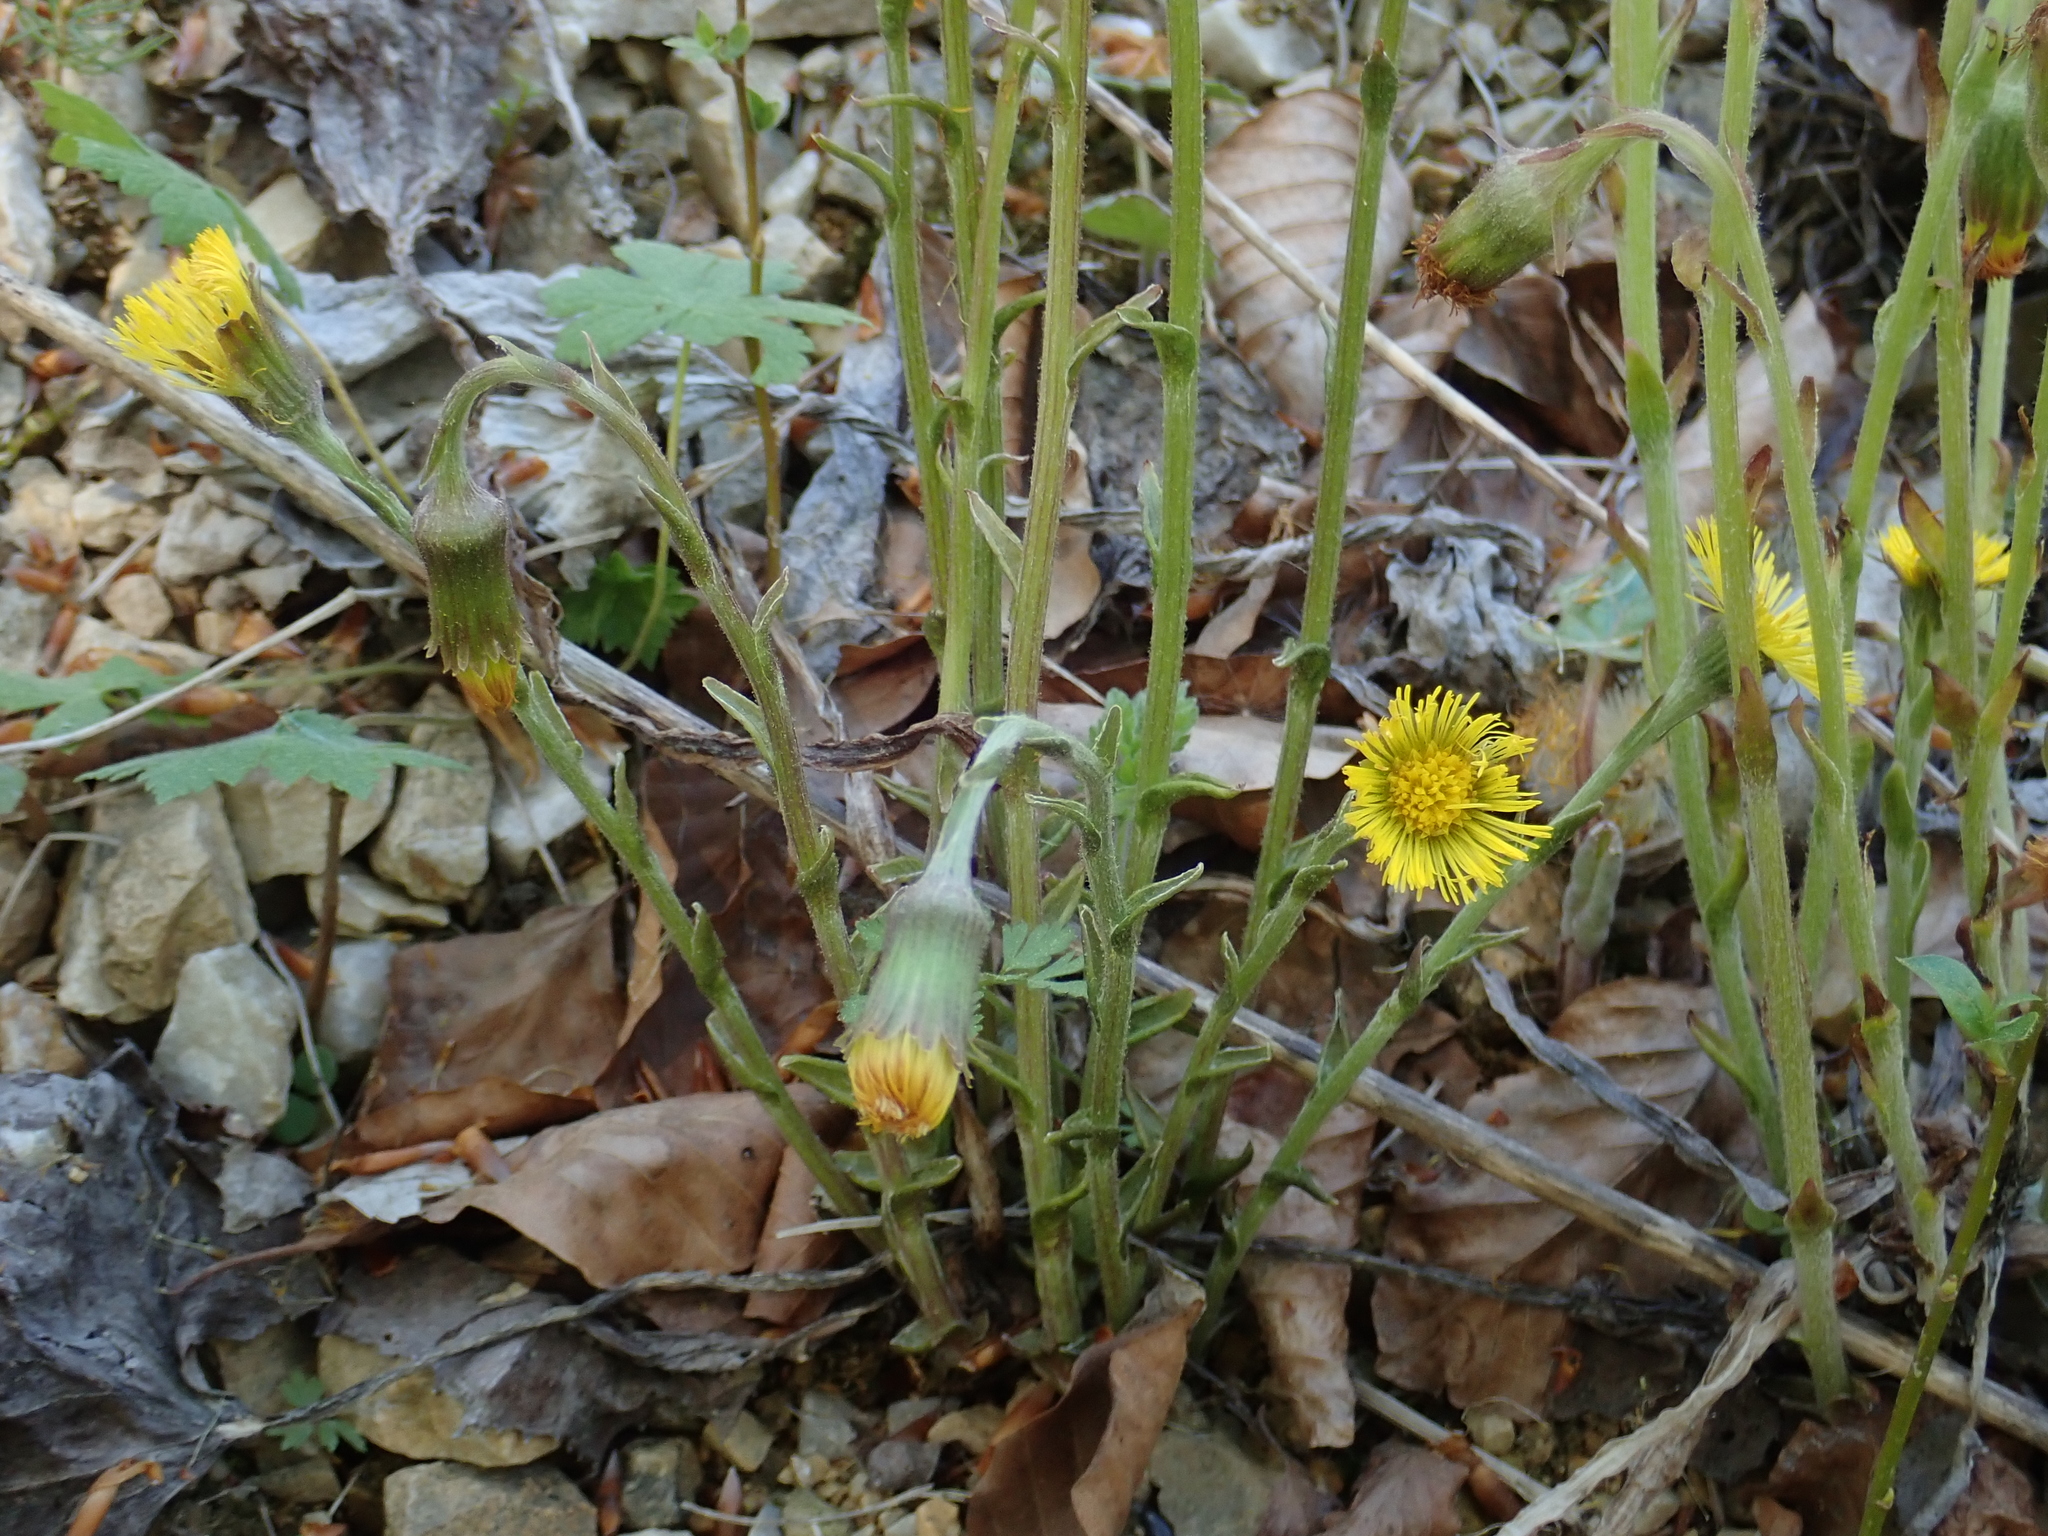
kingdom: Plantae
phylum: Tracheophyta
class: Magnoliopsida
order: Asterales
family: Asteraceae
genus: Tussilago
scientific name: Tussilago farfara
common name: Coltsfoot
